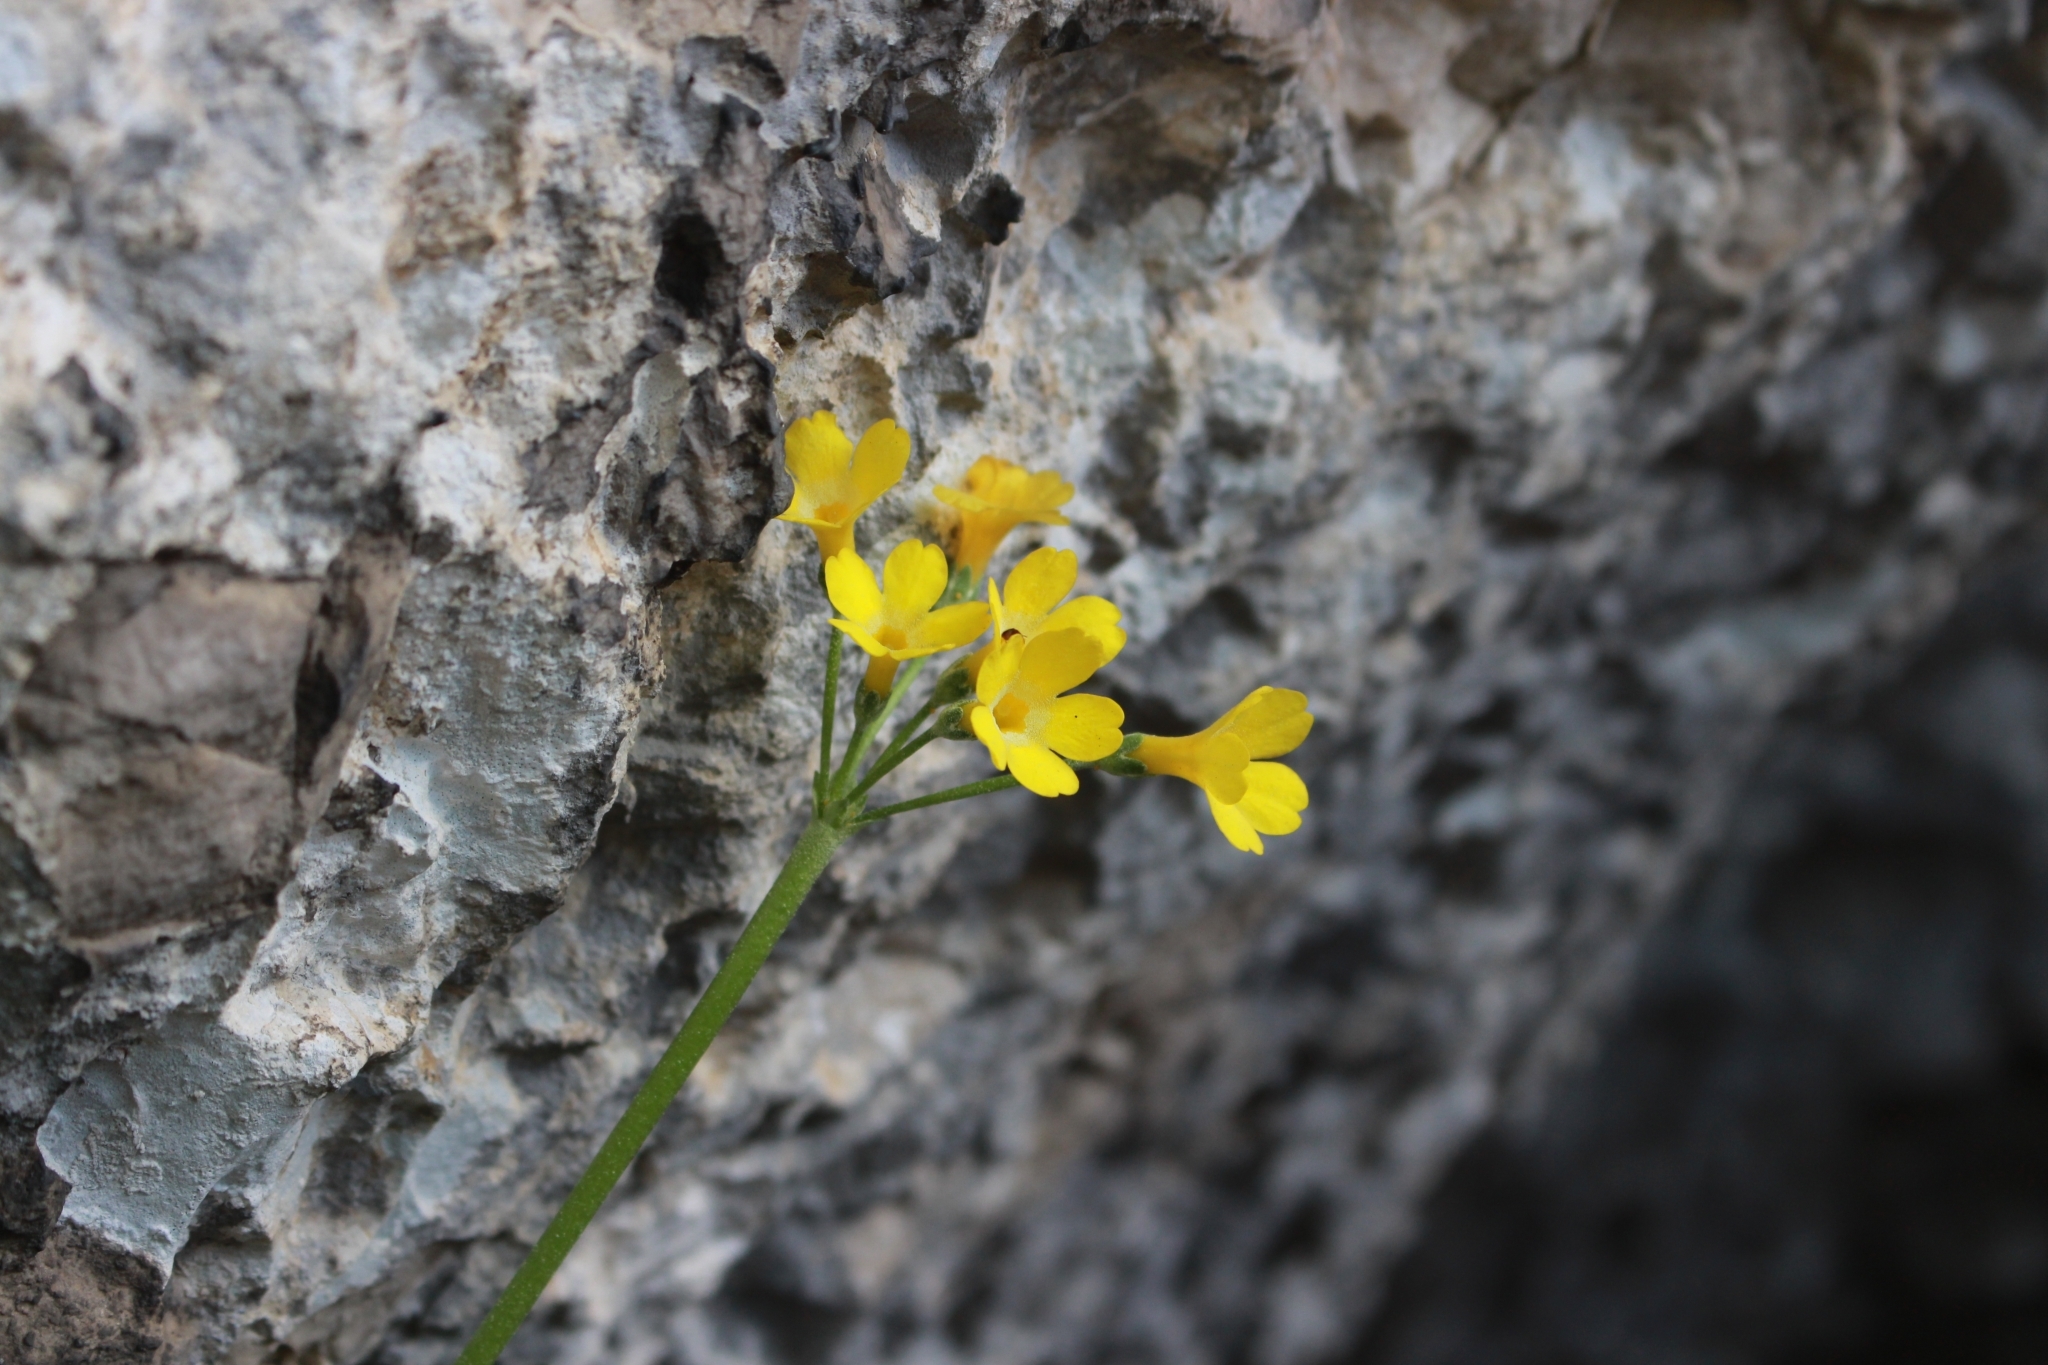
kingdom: Plantae
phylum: Tracheophyta
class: Magnoliopsida
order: Ericales
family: Primulaceae
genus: Primula
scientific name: Primula auricula
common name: Auricula
